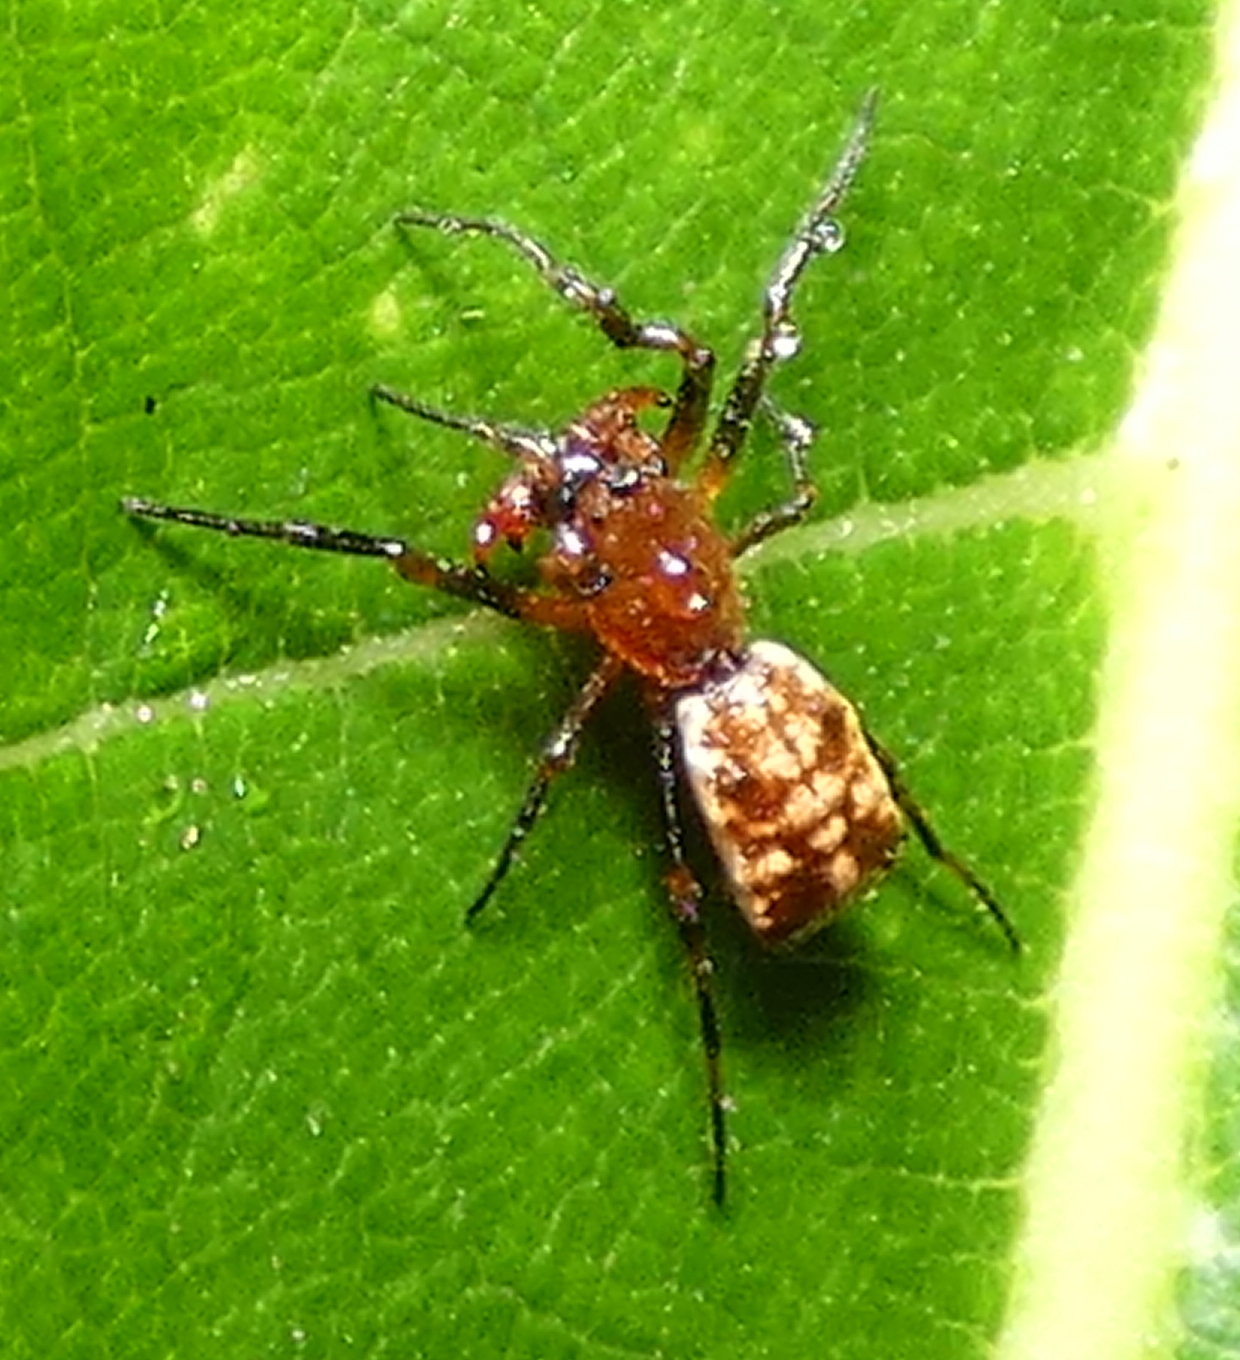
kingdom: Animalia
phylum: Arthropoda
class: Arachnida
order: Araneae
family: Araneidae
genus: Micrathena
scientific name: Micrathena picta
